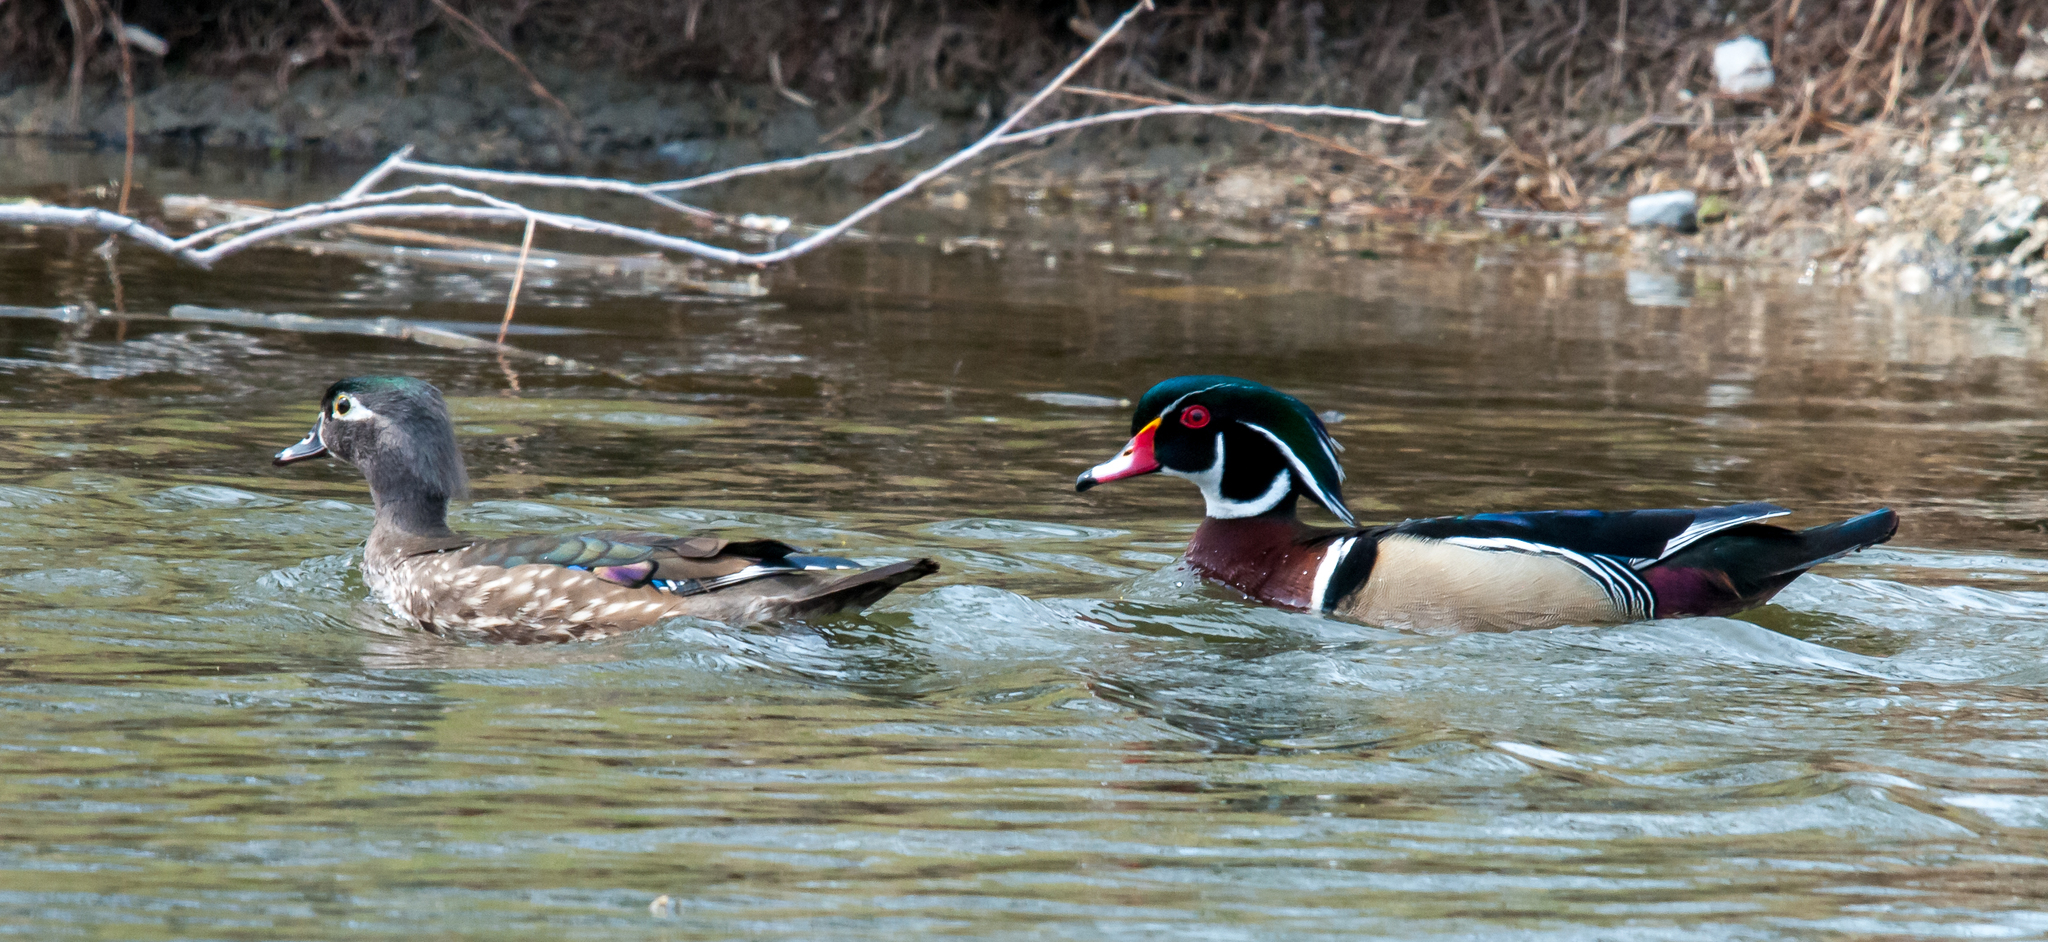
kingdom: Animalia
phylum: Chordata
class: Aves
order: Anseriformes
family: Anatidae
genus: Aix
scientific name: Aix sponsa
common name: Wood duck
